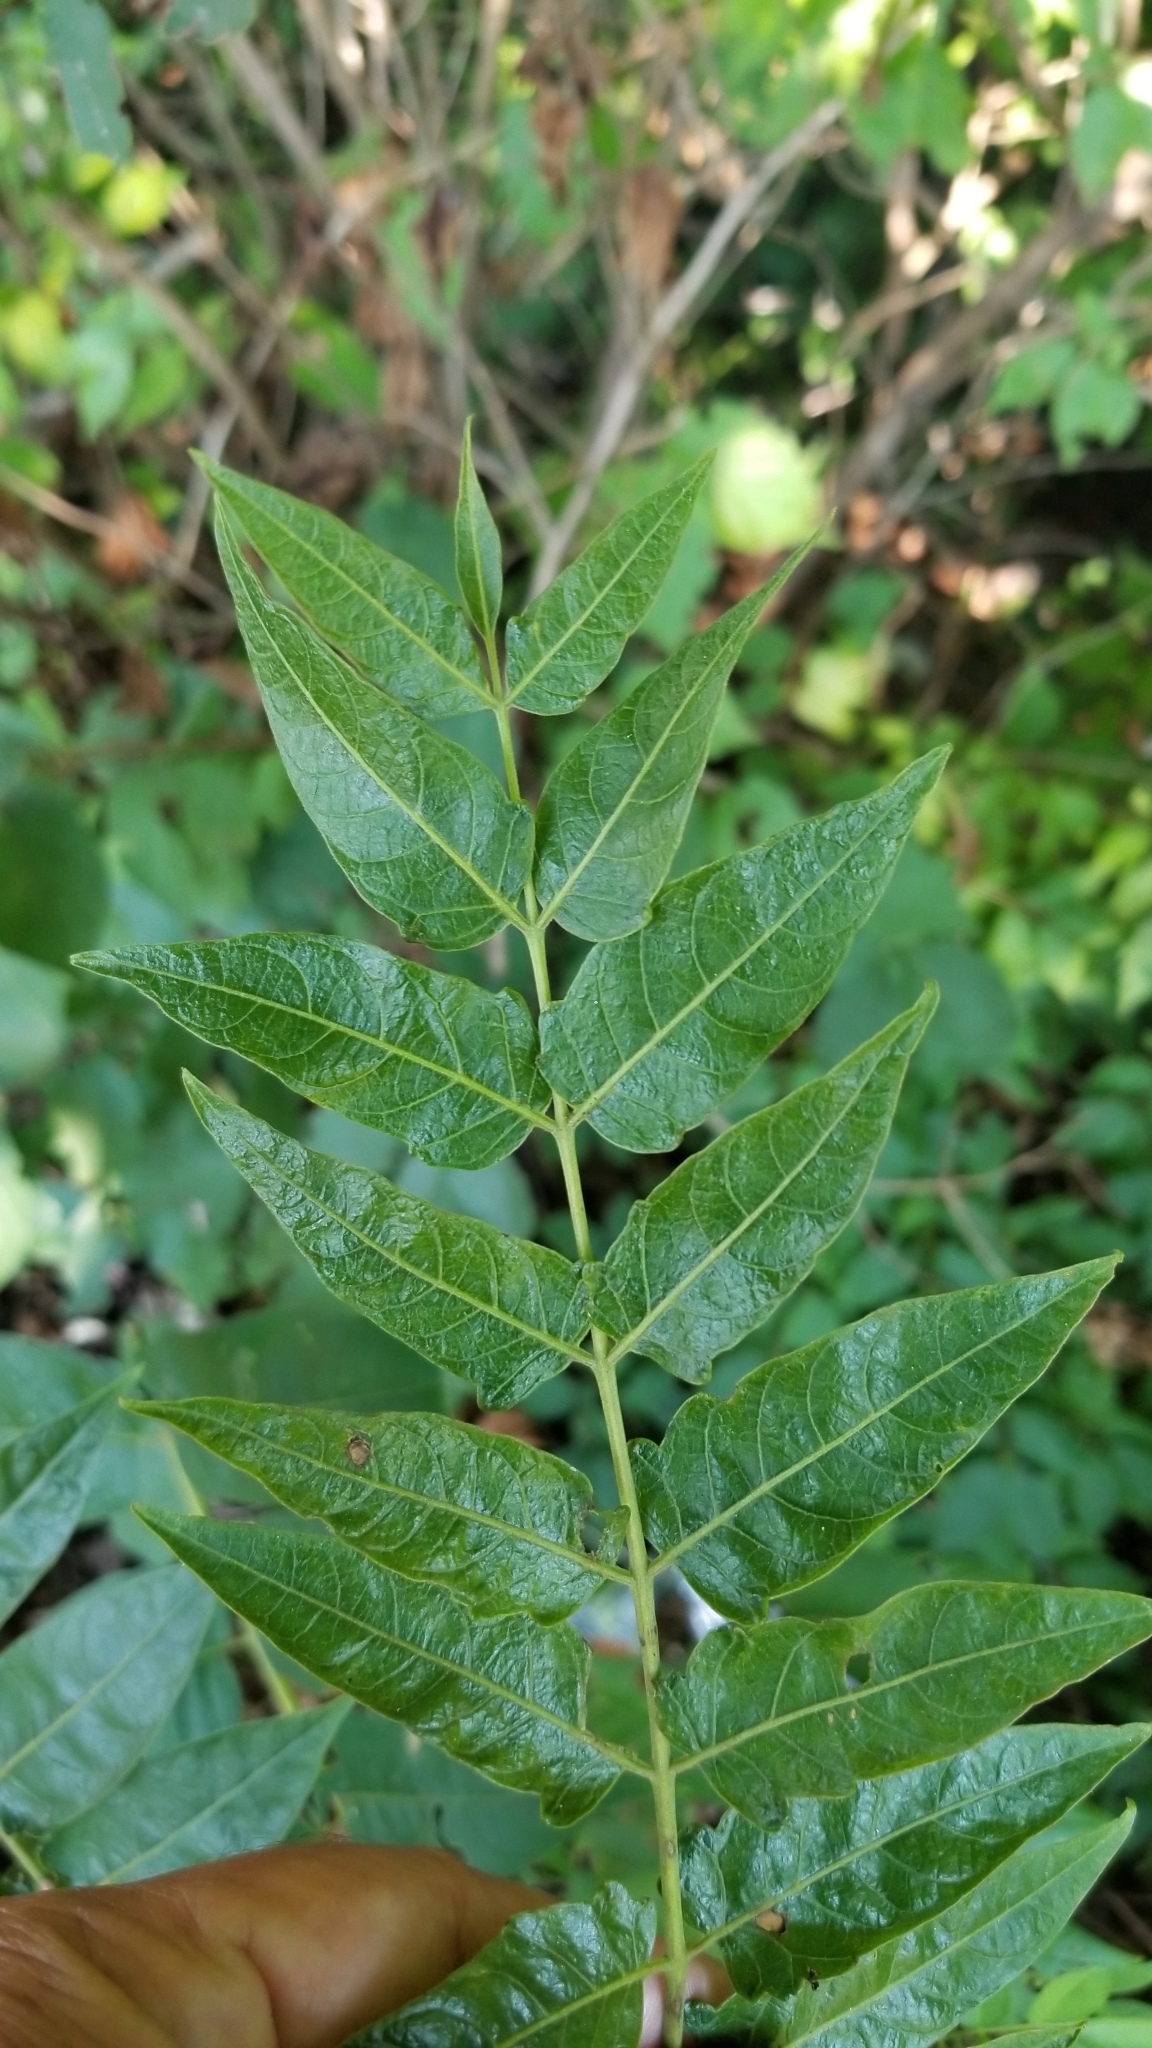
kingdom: Plantae
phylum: Tracheophyta
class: Magnoliopsida
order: Sapindales
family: Simaroubaceae
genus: Ailanthus
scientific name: Ailanthus altissima
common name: Tree-of-heaven
